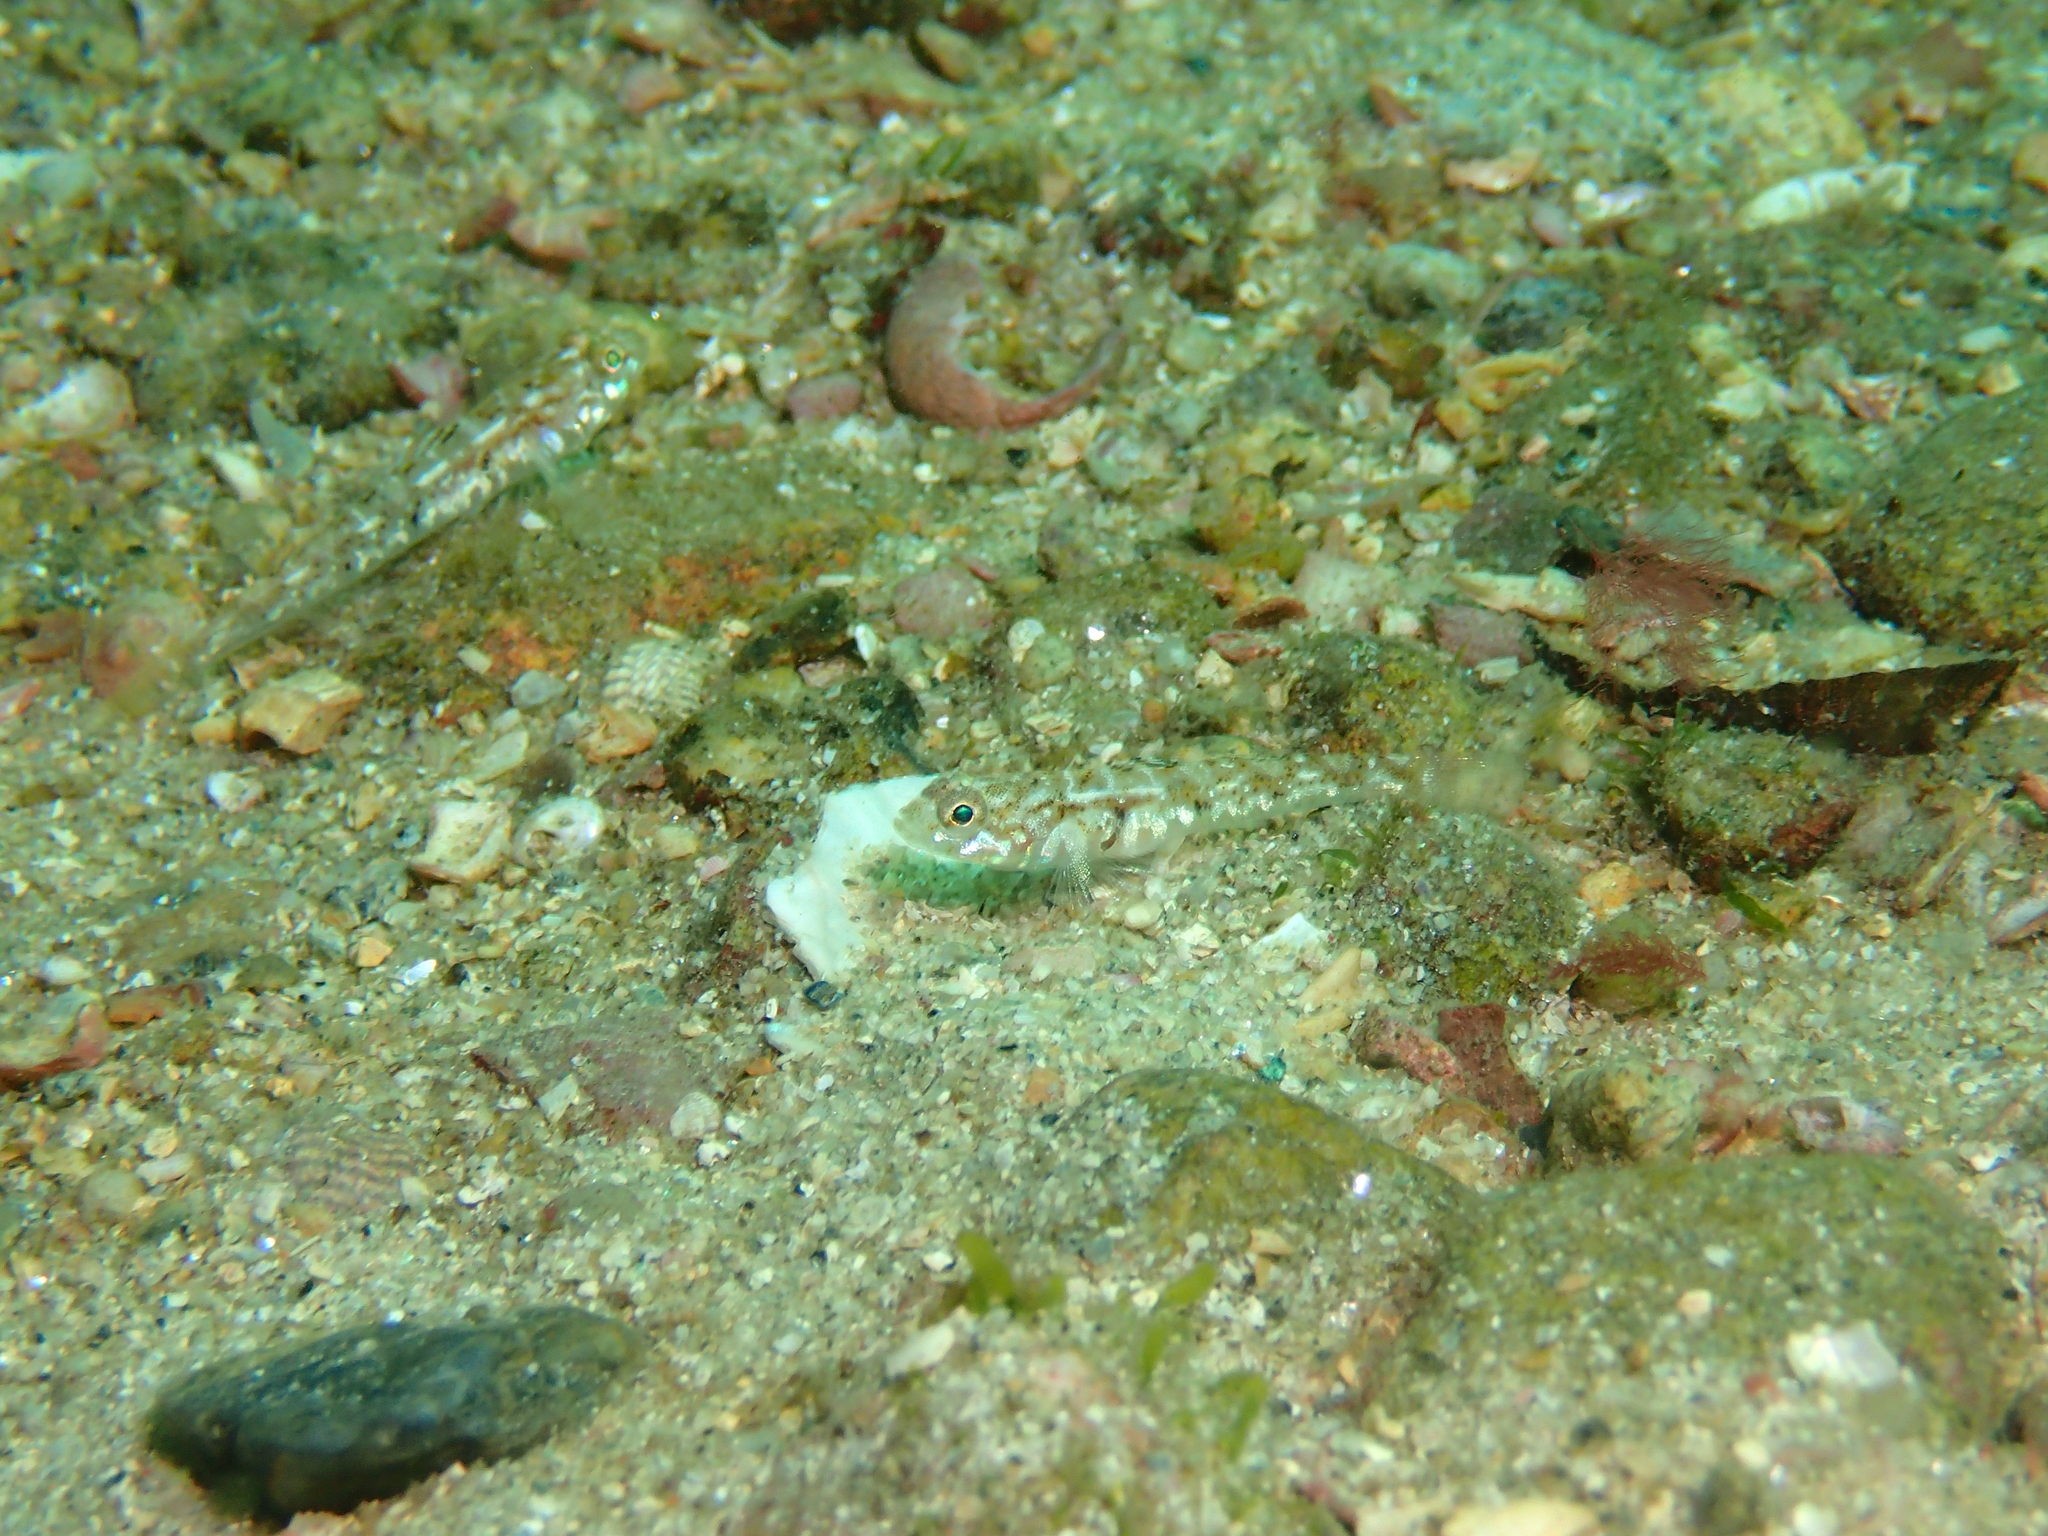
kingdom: Animalia
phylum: Chordata
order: Perciformes
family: Gobiidae
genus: Pomatoschistus
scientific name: Pomatoschistus pictus
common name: Painted goby
